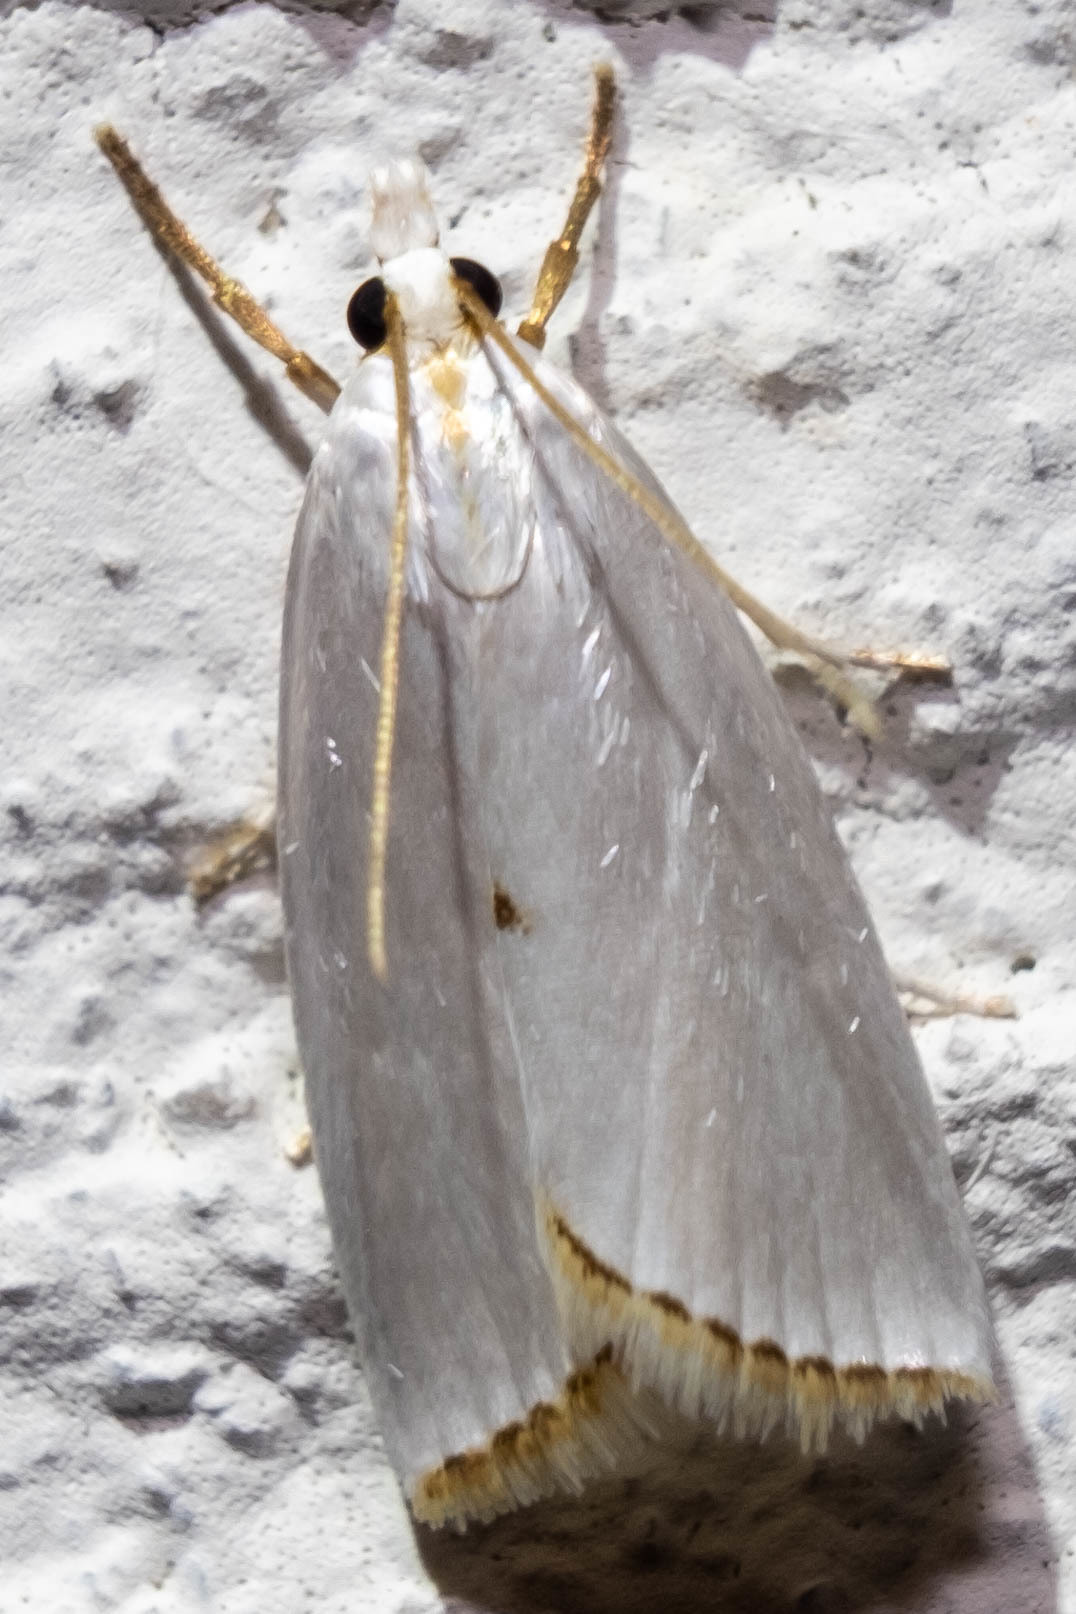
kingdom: Animalia
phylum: Arthropoda
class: Insecta
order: Lepidoptera
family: Crambidae
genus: Argyria
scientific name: Argyria nivalis
